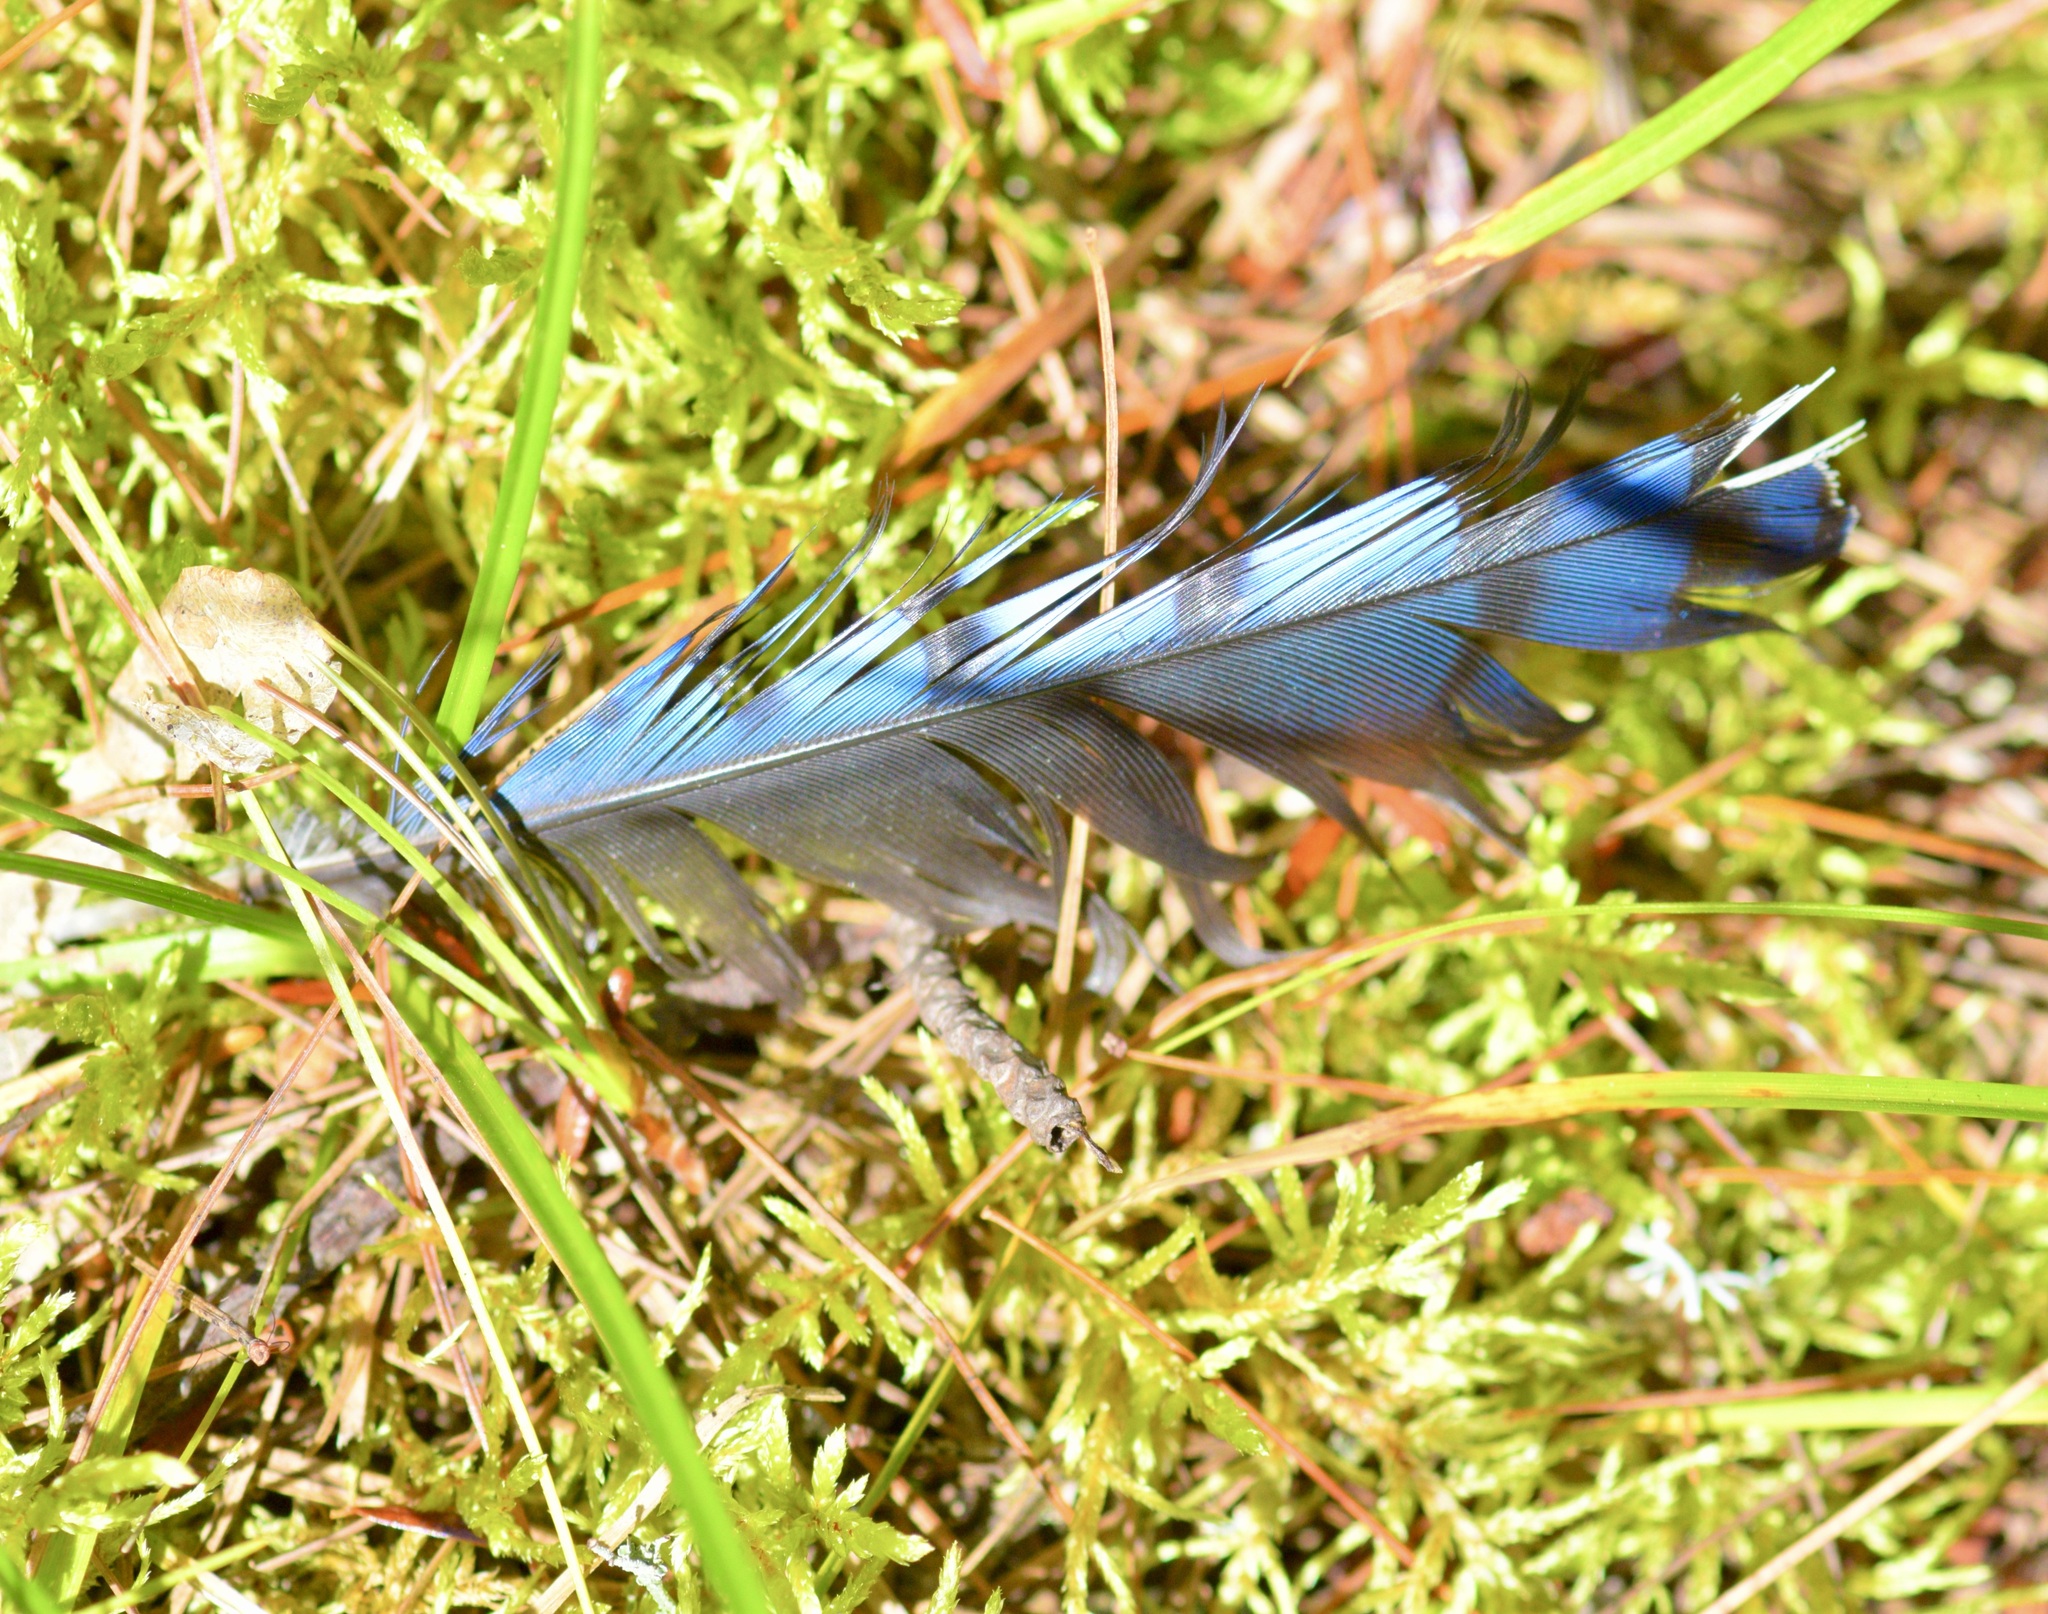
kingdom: Animalia
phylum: Chordata
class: Aves
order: Passeriformes
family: Corvidae
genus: Cyanocitta
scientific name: Cyanocitta cristata
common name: Blue jay
